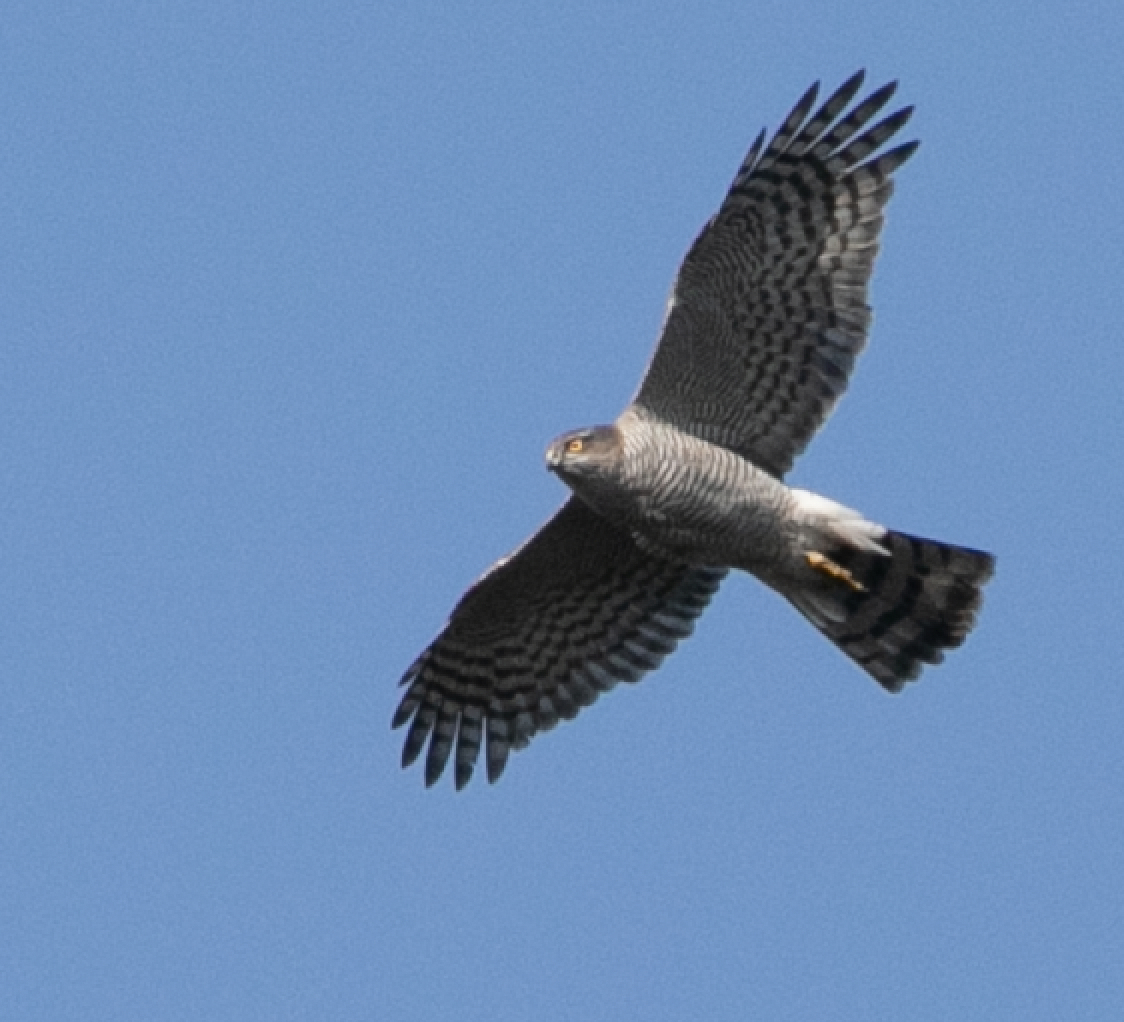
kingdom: Animalia
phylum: Chordata
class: Aves
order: Accipitriformes
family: Accipitridae
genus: Accipiter
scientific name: Accipiter nisus
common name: Eurasian sparrowhawk
